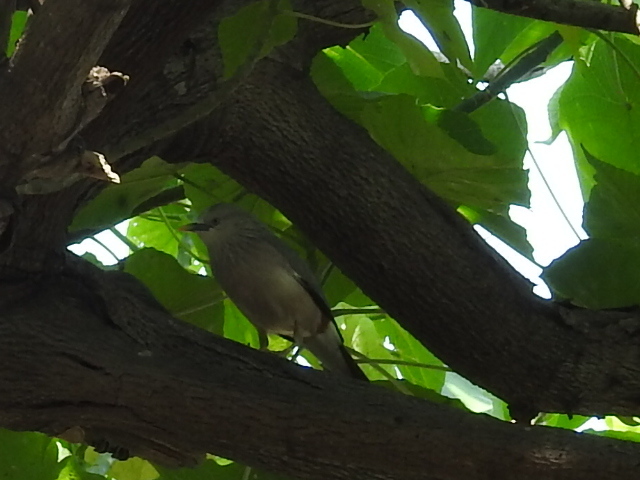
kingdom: Animalia
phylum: Chordata
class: Aves
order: Passeriformes
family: Sturnidae
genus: Sturnia
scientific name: Sturnia malabarica
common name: Chestnut-tailed starling
